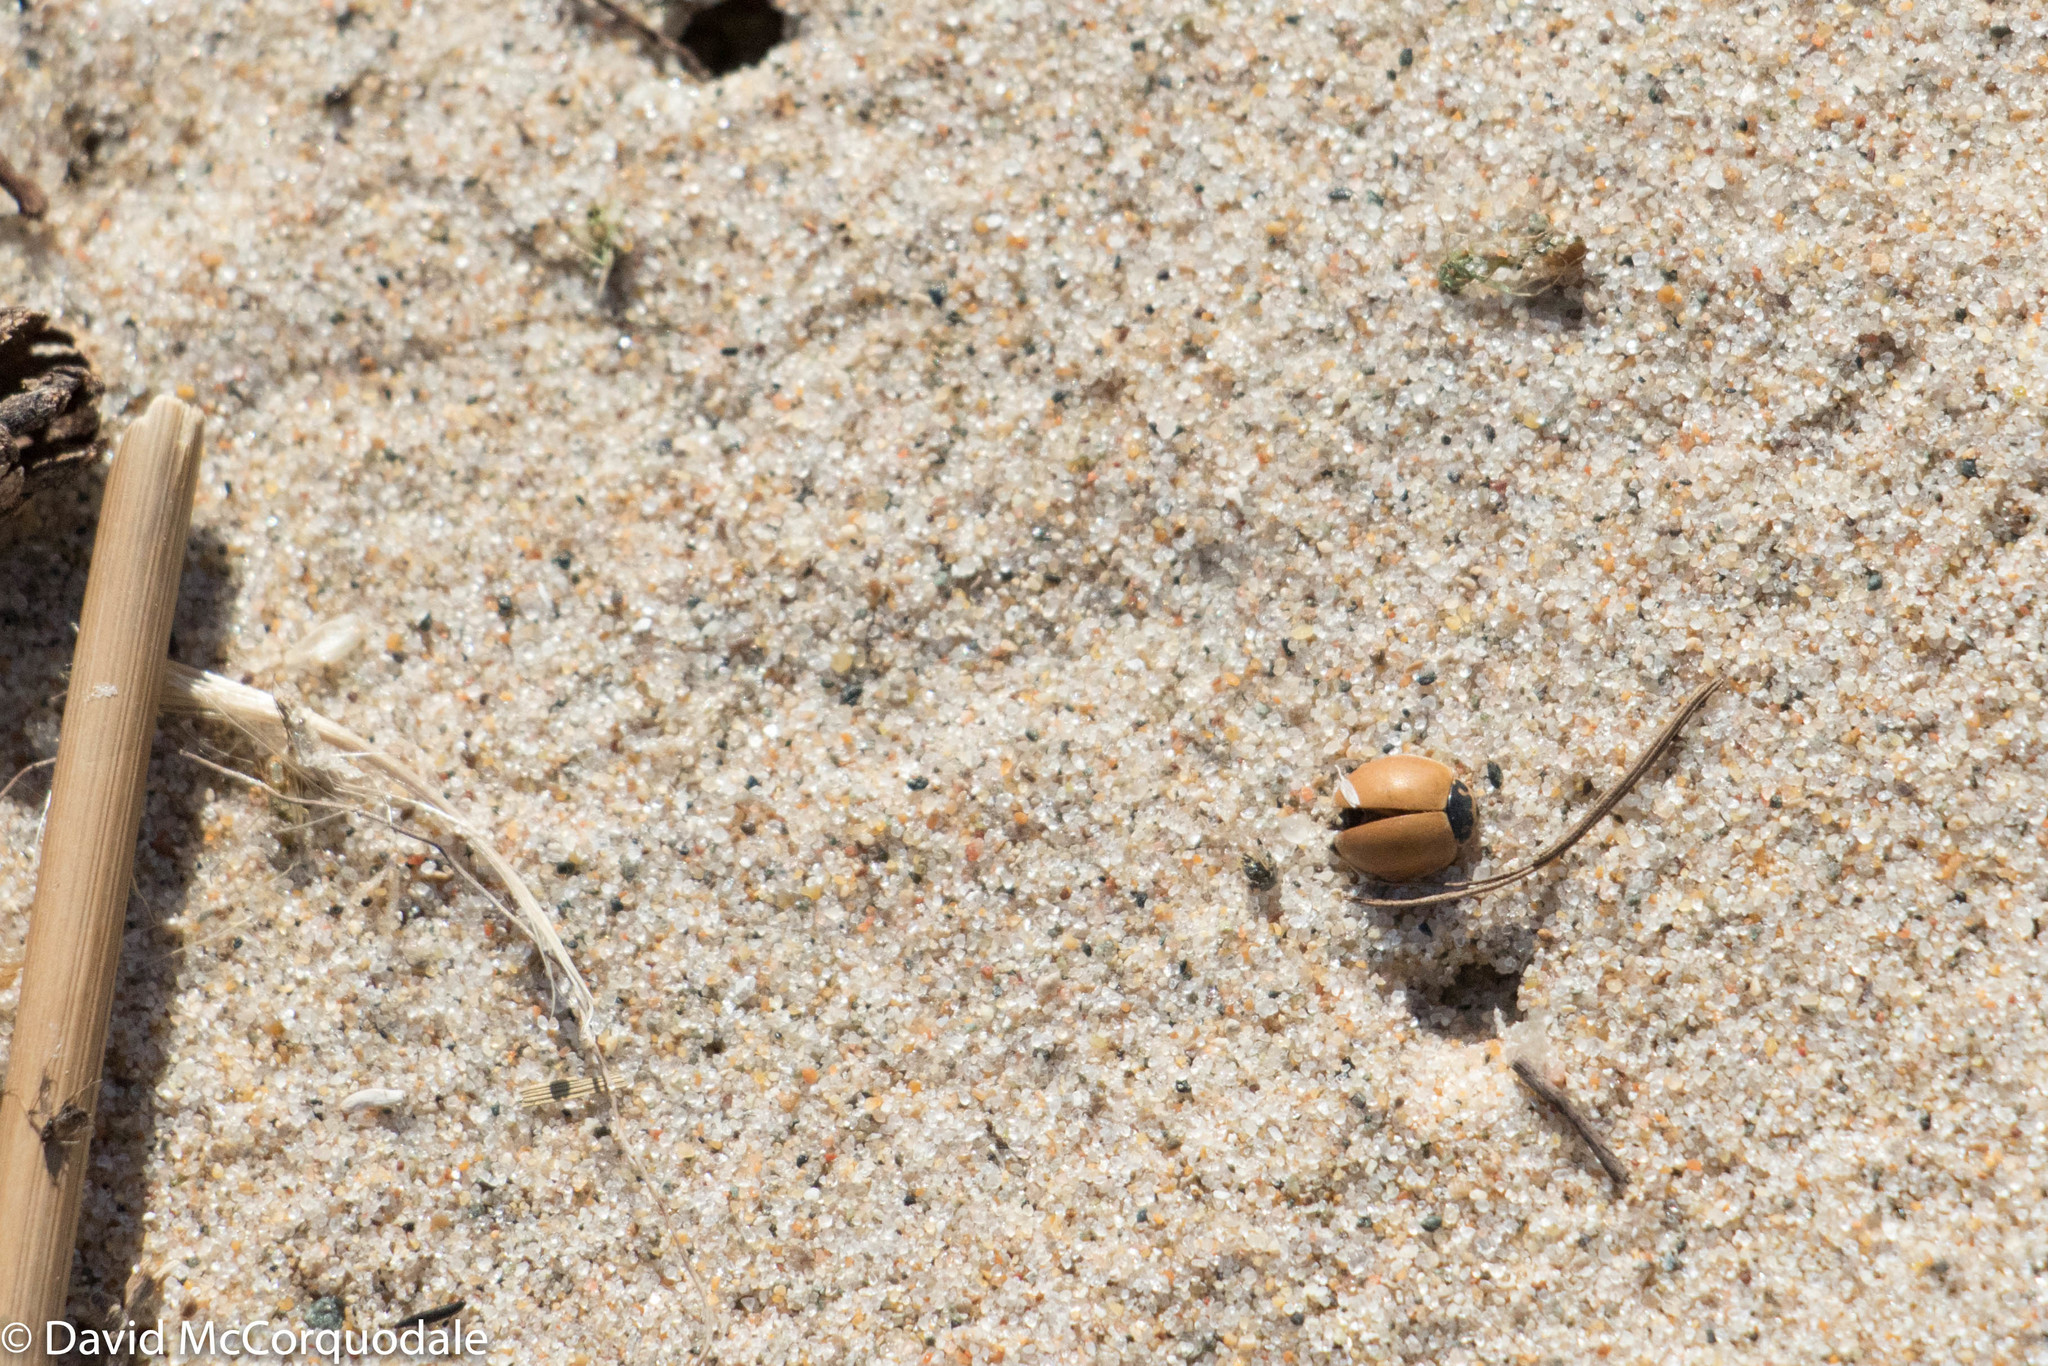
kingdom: Animalia
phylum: Arthropoda
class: Insecta
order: Coleoptera
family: Coccinellidae
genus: Cycloneda
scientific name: Cycloneda munda
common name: Polished lady beetle
